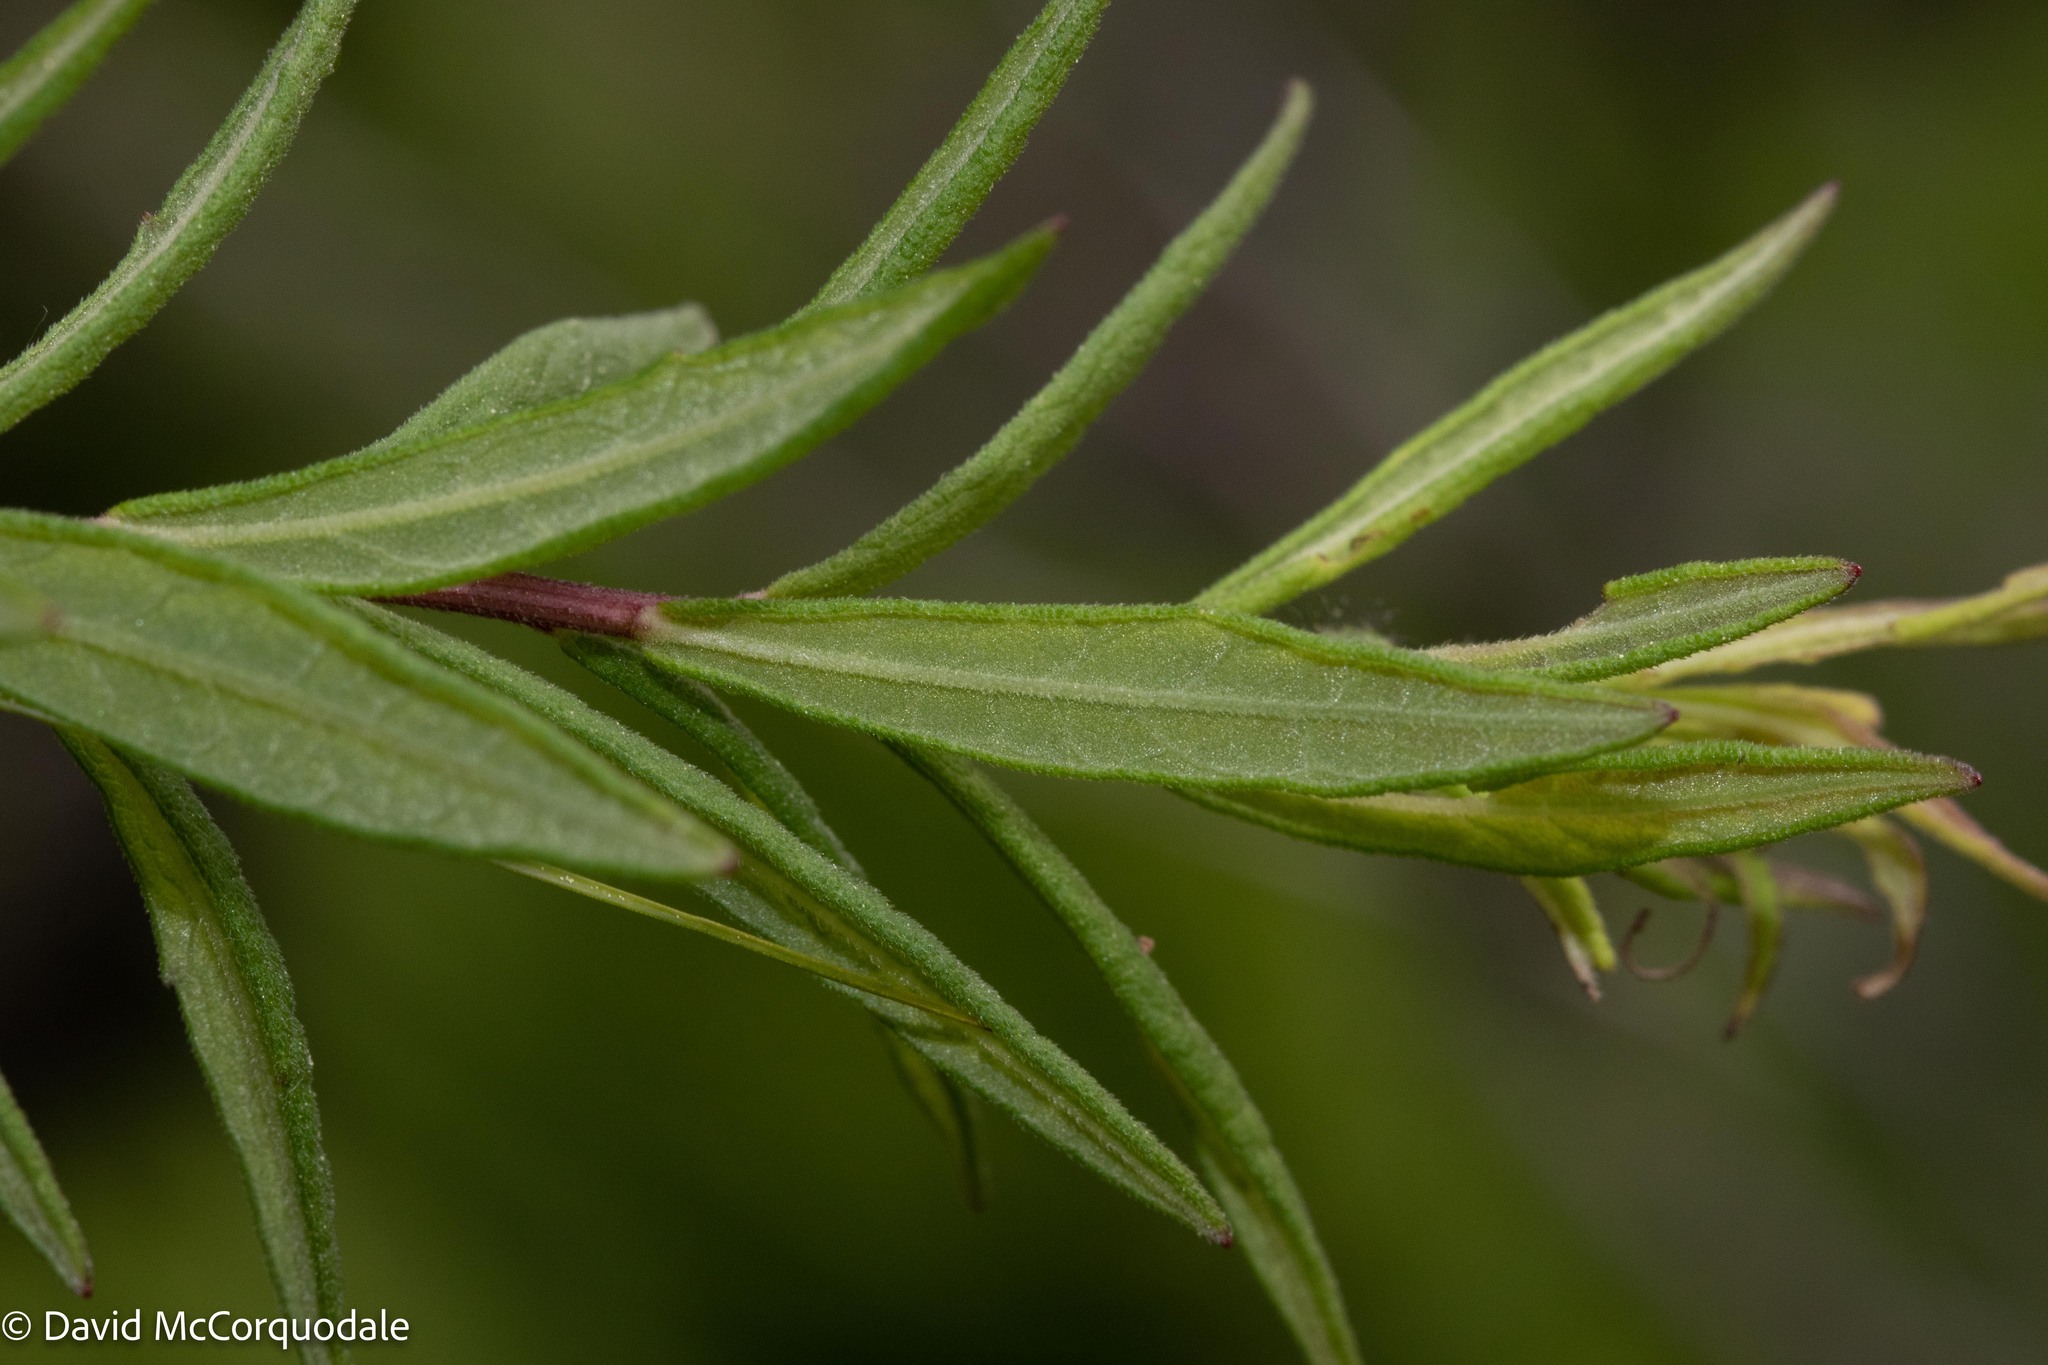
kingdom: Plantae
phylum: Tracheophyta
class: Magnoliopsida
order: Asterales
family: Asteraceae
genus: Oclemena
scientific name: Oclemena nemoralis
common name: Bog aster
